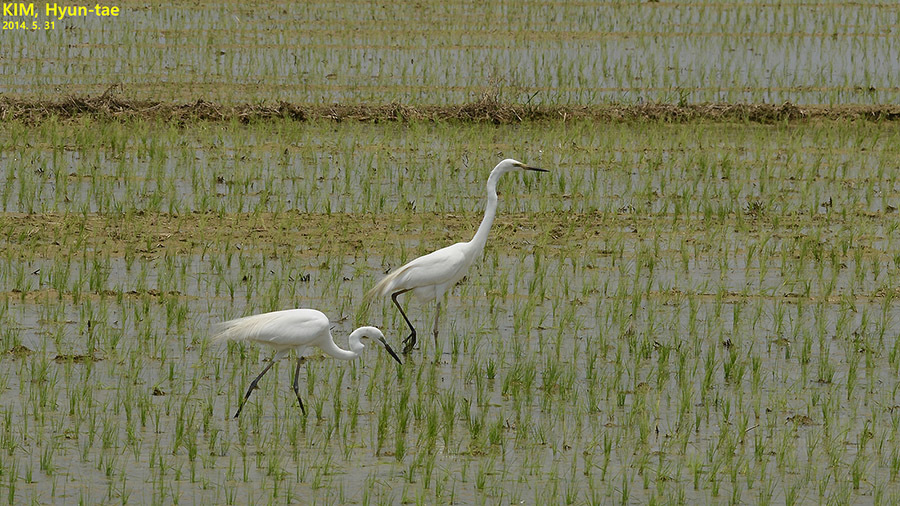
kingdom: Animalia
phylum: Chordata
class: Aves
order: Pelecaniformes
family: Ardeidae
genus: Ardea
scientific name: Ardea modesta
